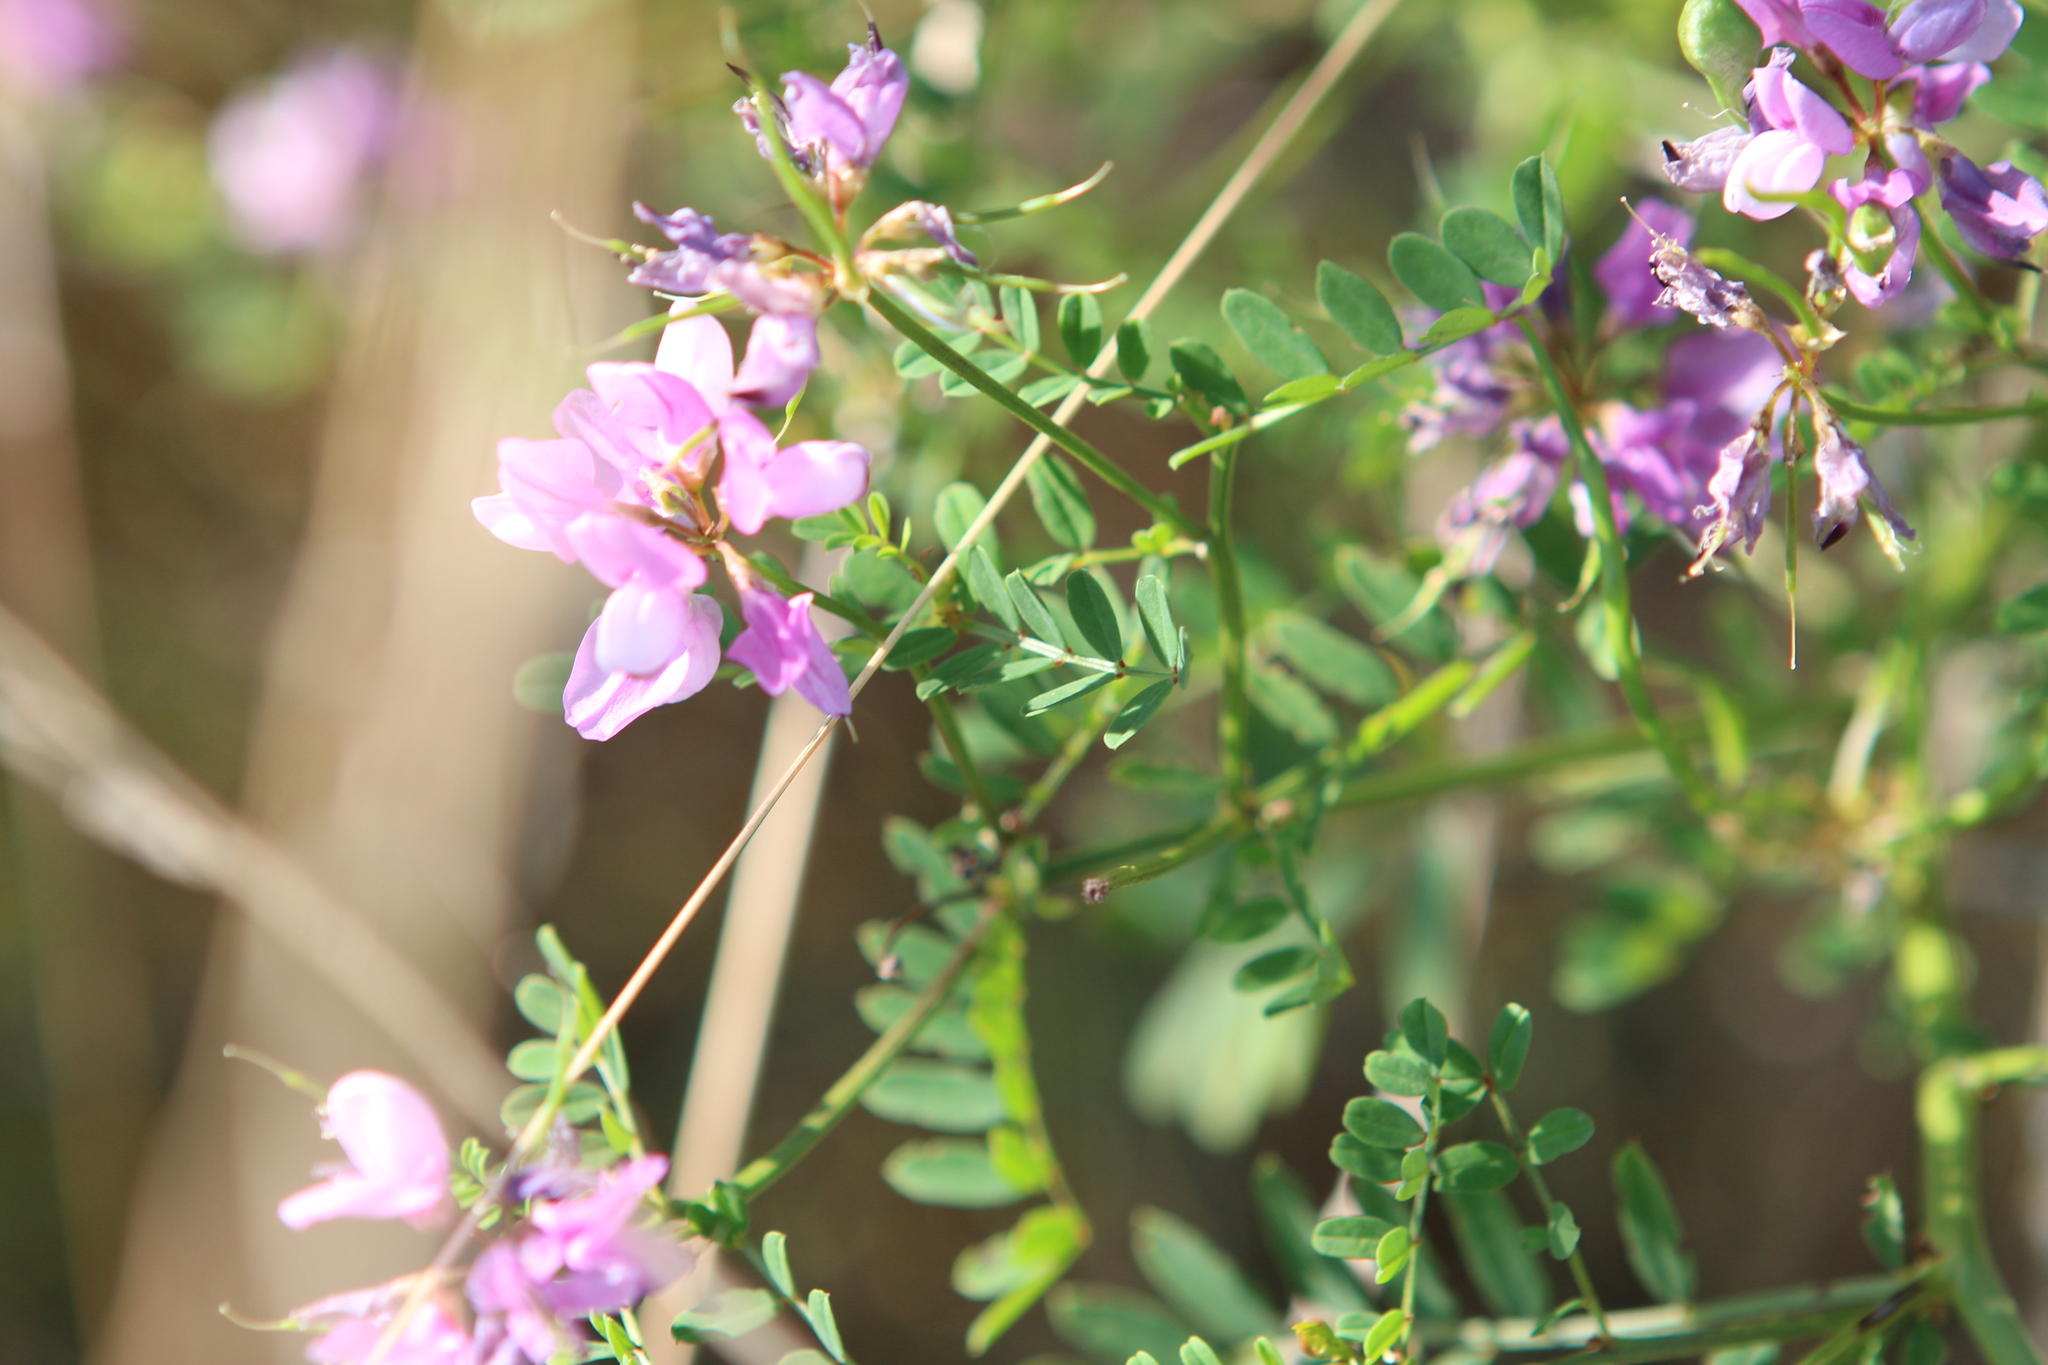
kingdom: Plantae
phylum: Tracheophyta
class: Magnoliopsida
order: Fabales
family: Fabaceae
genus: Coronilla
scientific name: Coronilla varia
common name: Crownvetch
